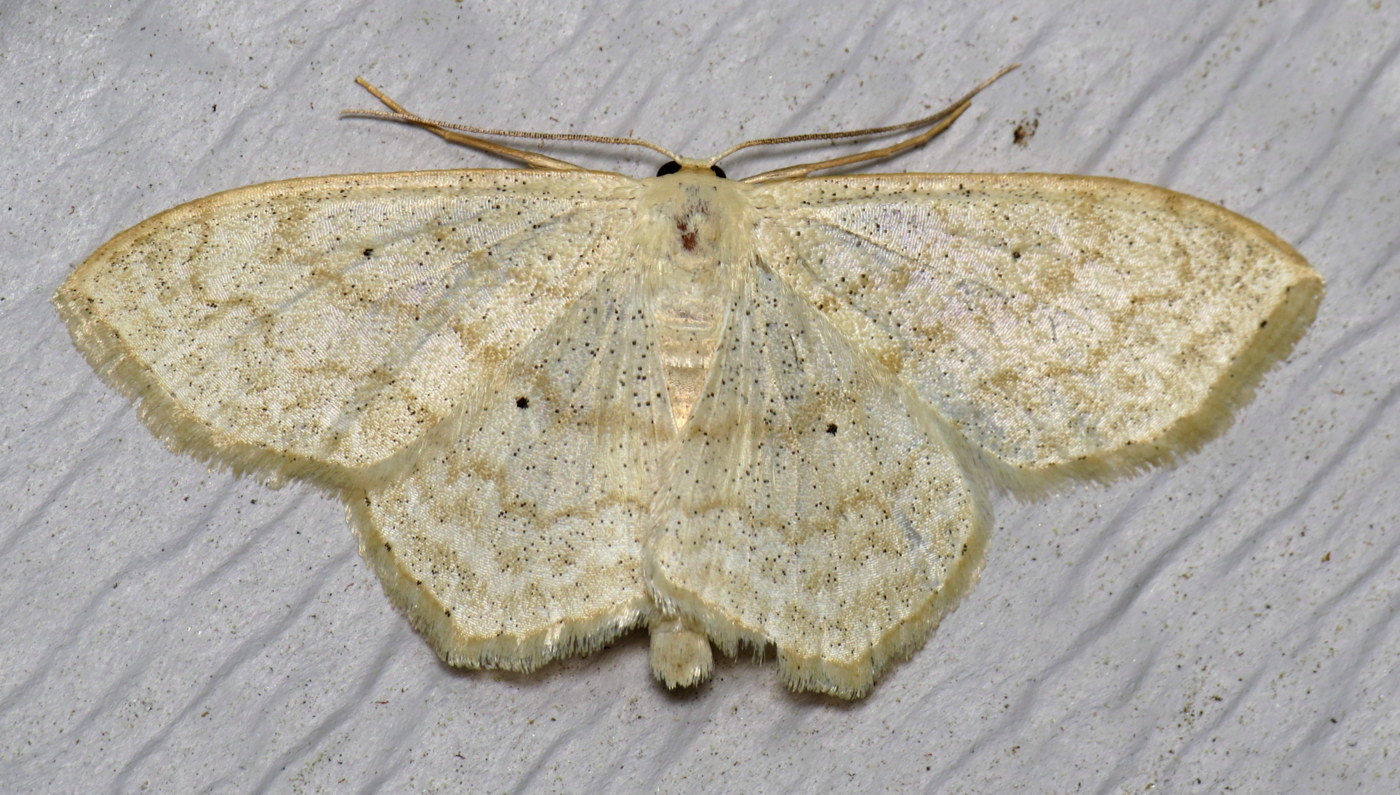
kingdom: Animalia
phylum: Arthropoda
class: Insecta
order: Lepidoptera
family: Geometridae
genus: Scopula
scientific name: Scopula limboundata
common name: Large lace border
